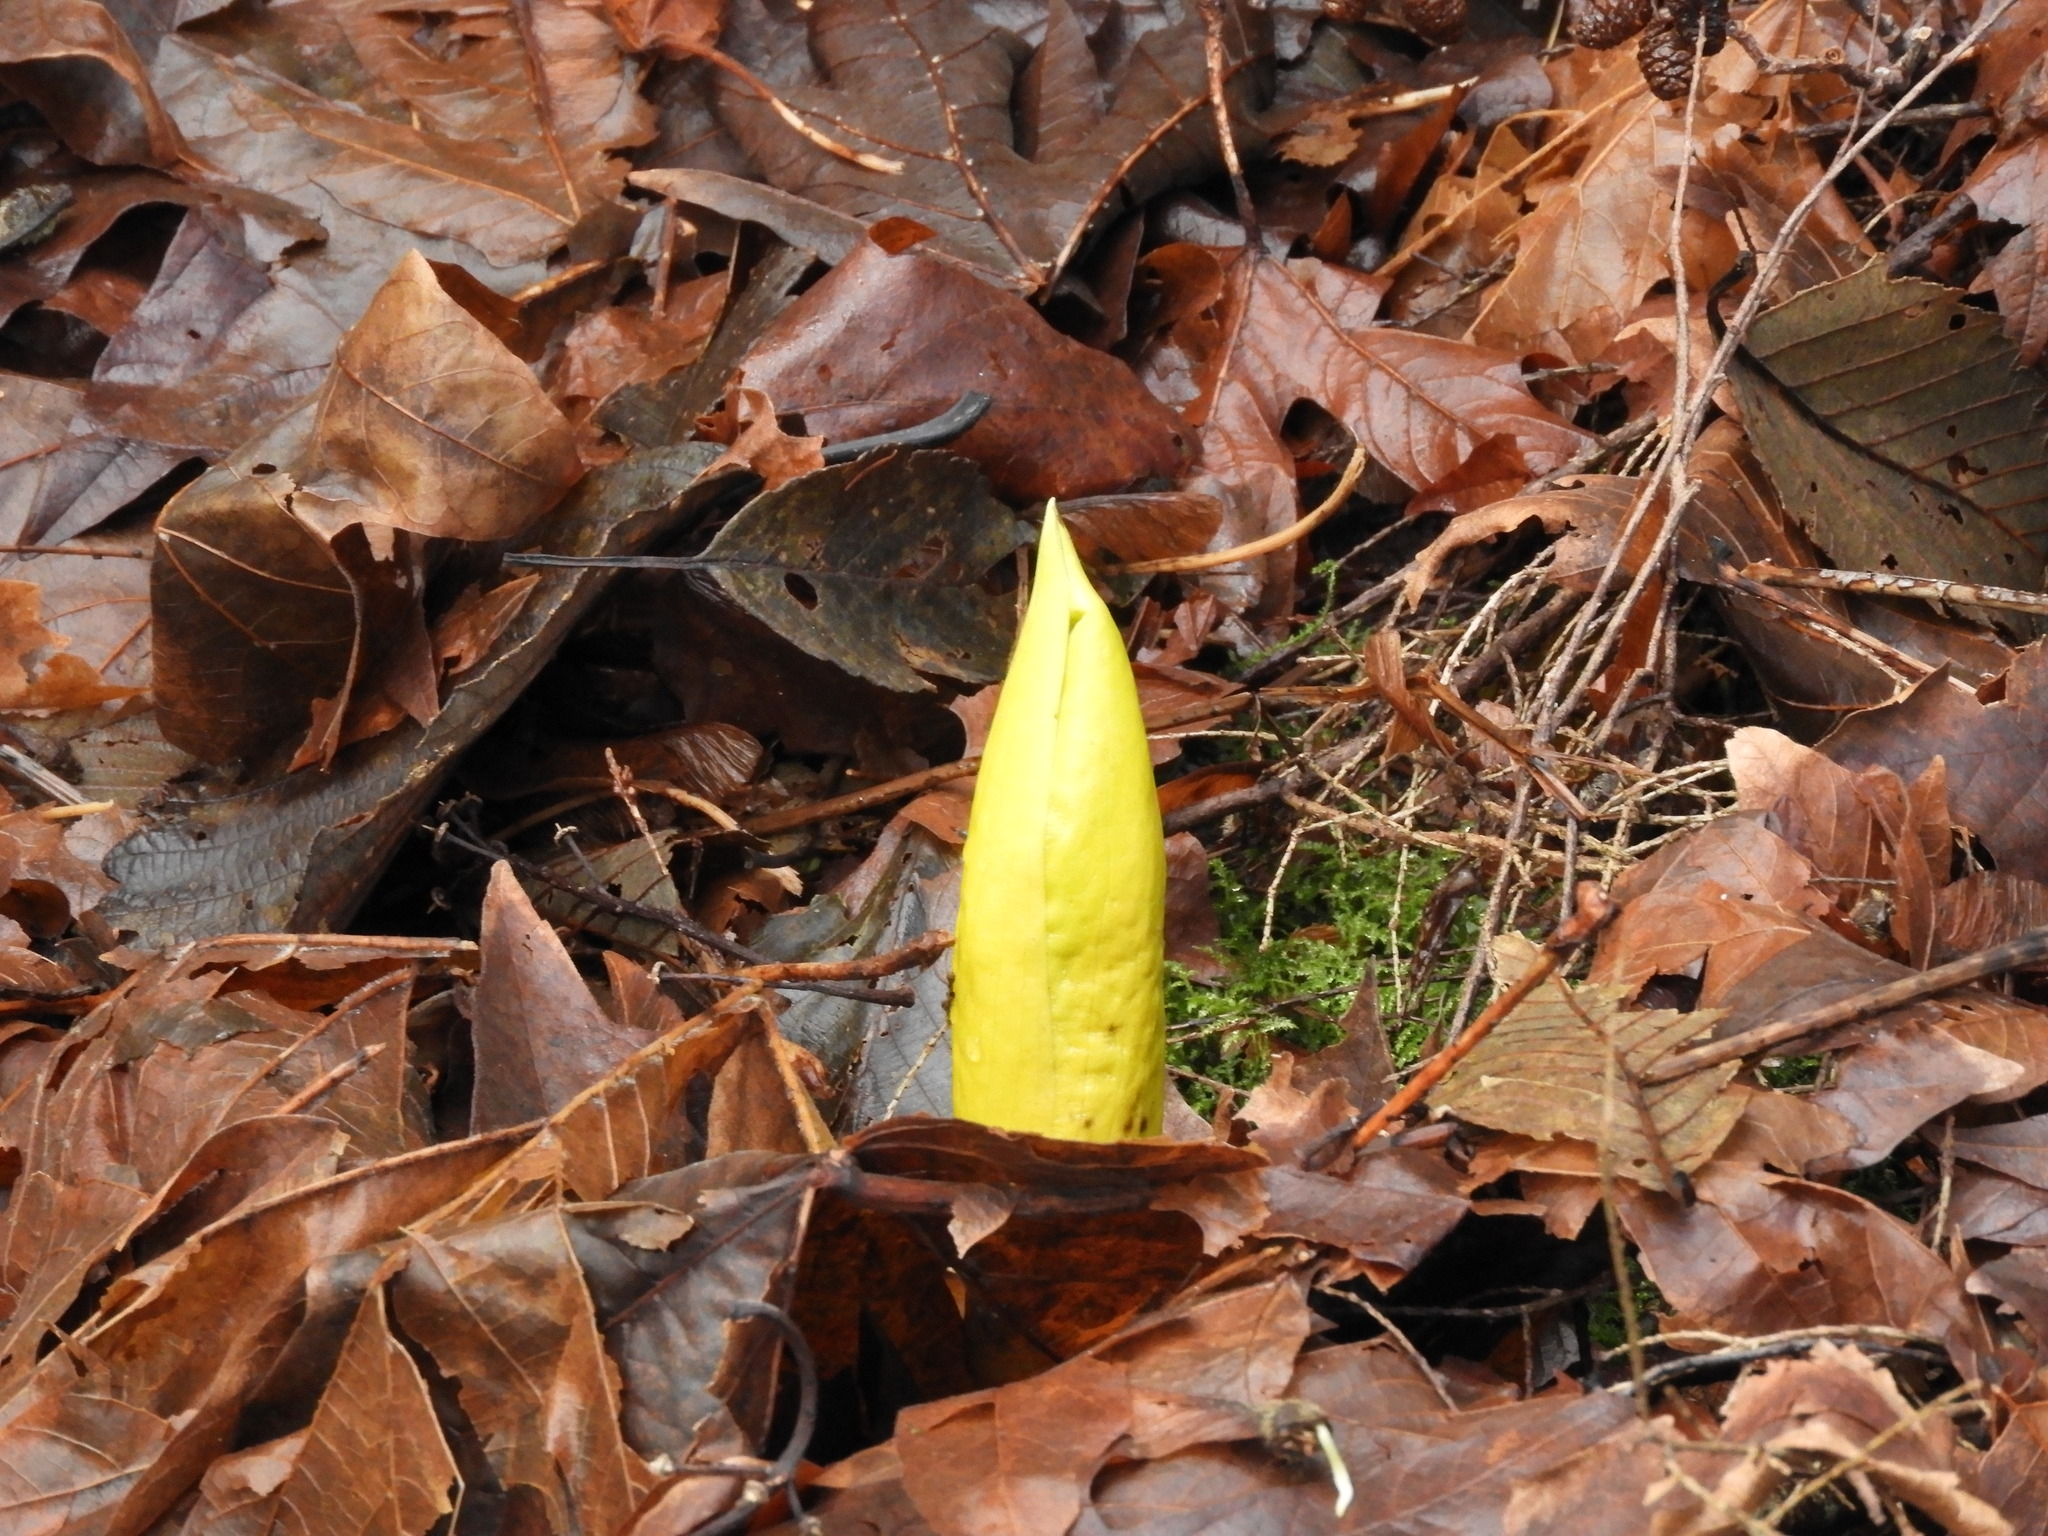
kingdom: Plantae
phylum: Tracheophyta
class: Liliopsida
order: Alismatales
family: Araceae
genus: Lysichiton
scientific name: Lysichiton americanus
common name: American skunk cabbage
